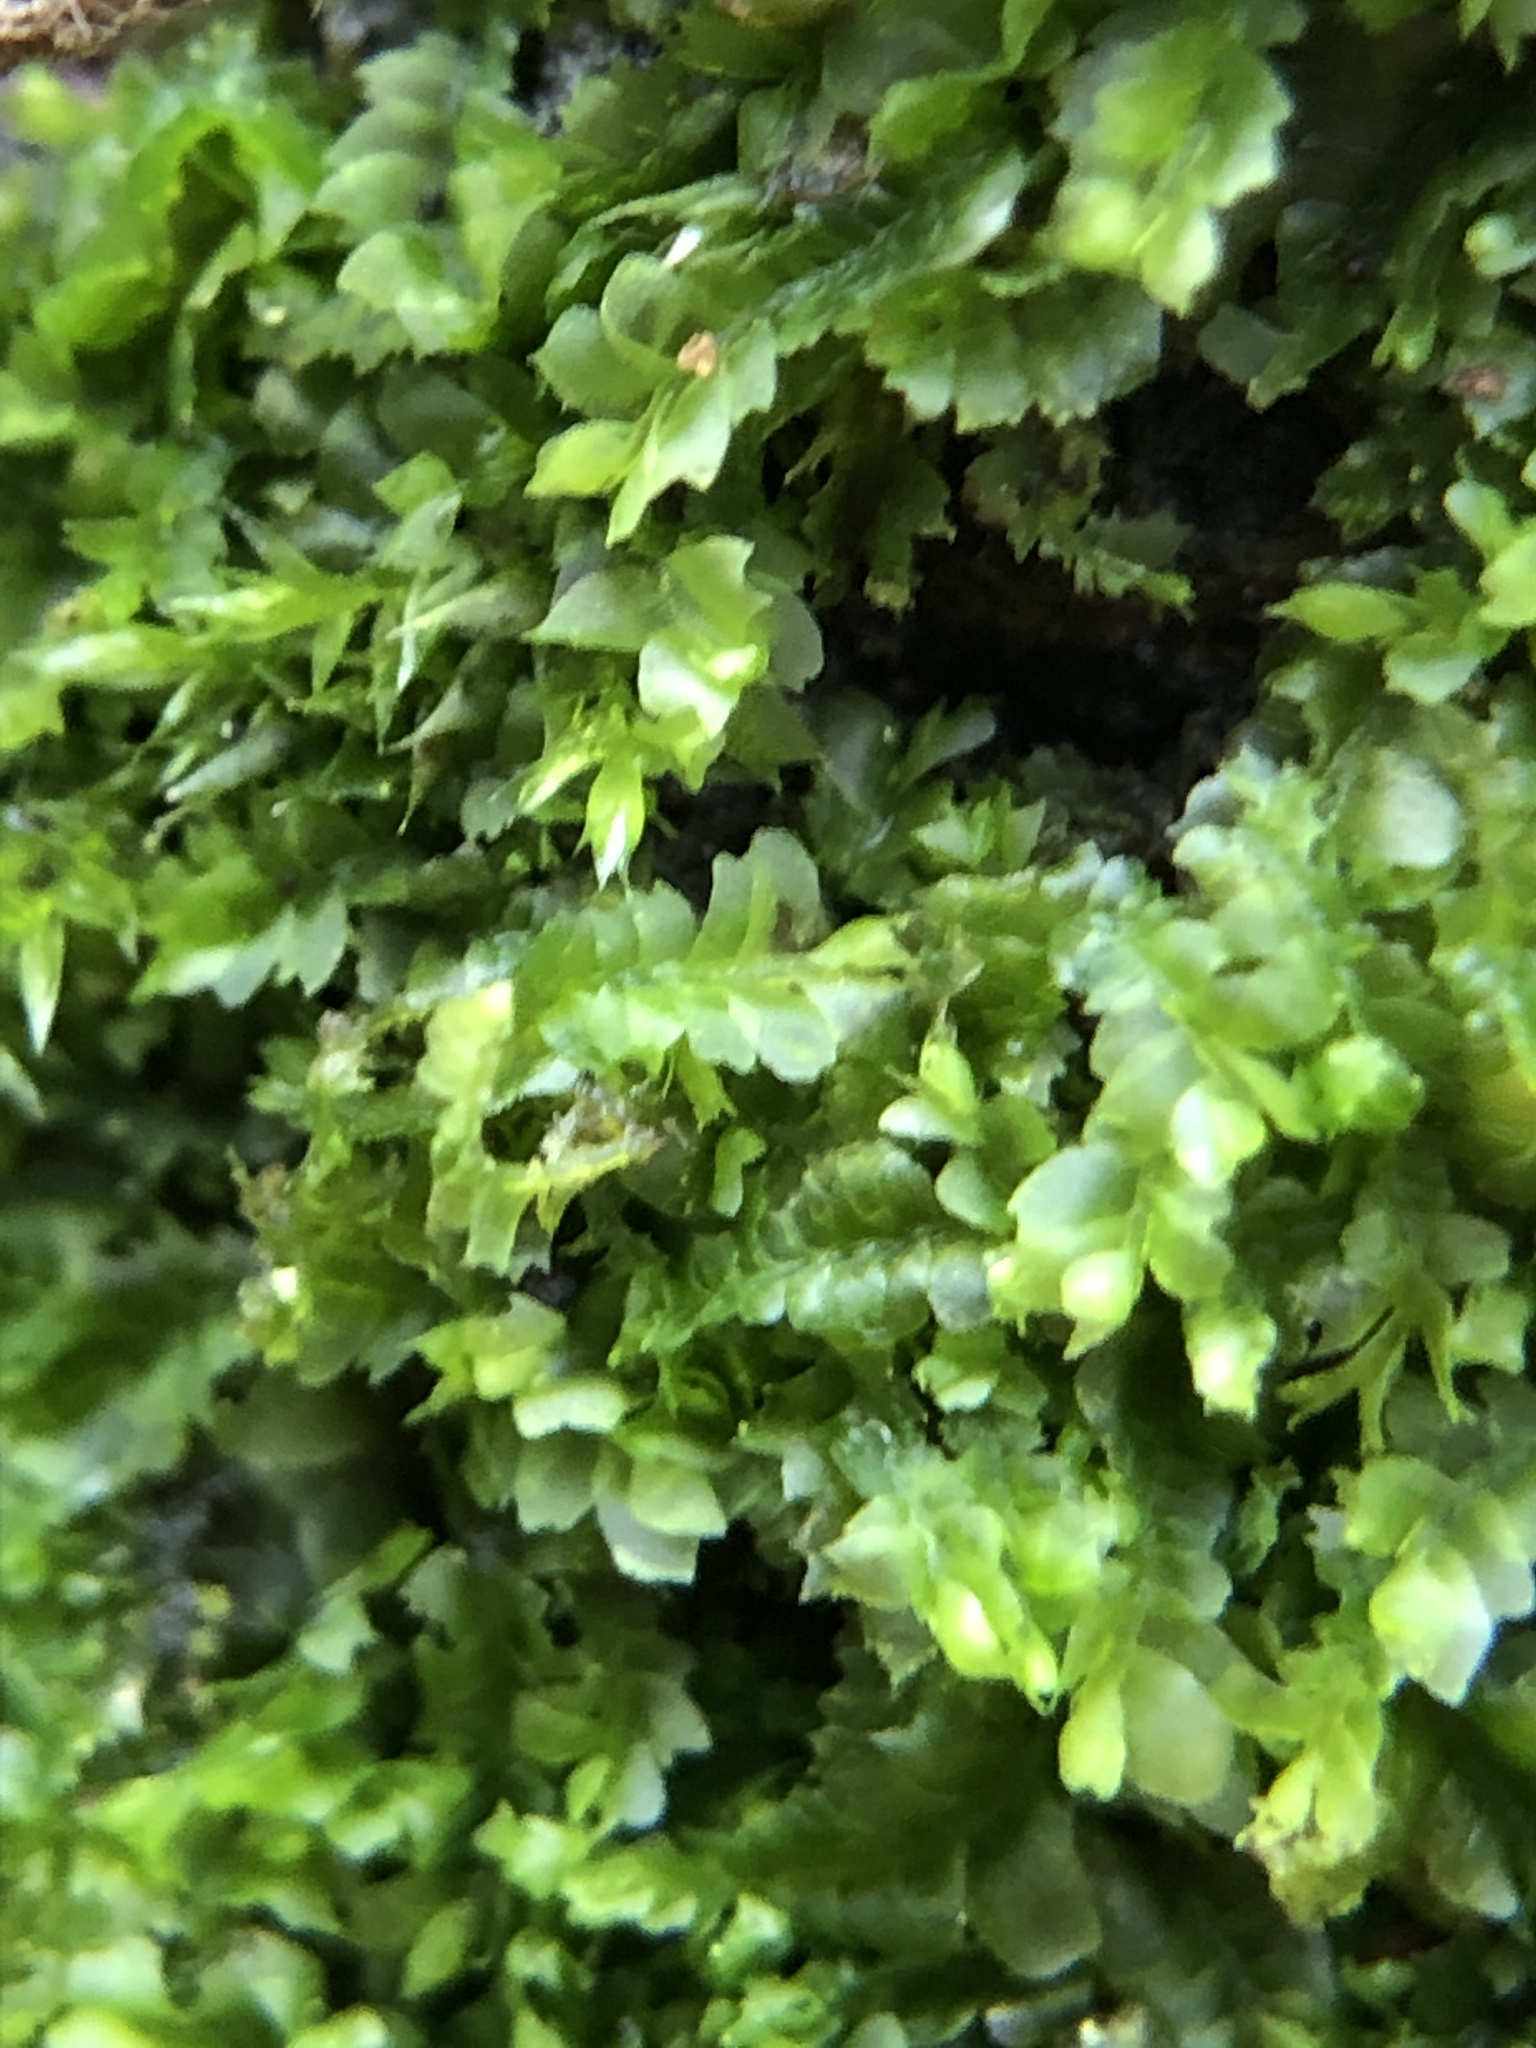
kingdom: Plantae
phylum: Marchantiophyta
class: Jungermanniopsida
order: Jungermanniales
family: Lophocoleaceae
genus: Lophocolea
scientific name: Lophocolea heterophylla
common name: Variable-leaved crestwort
